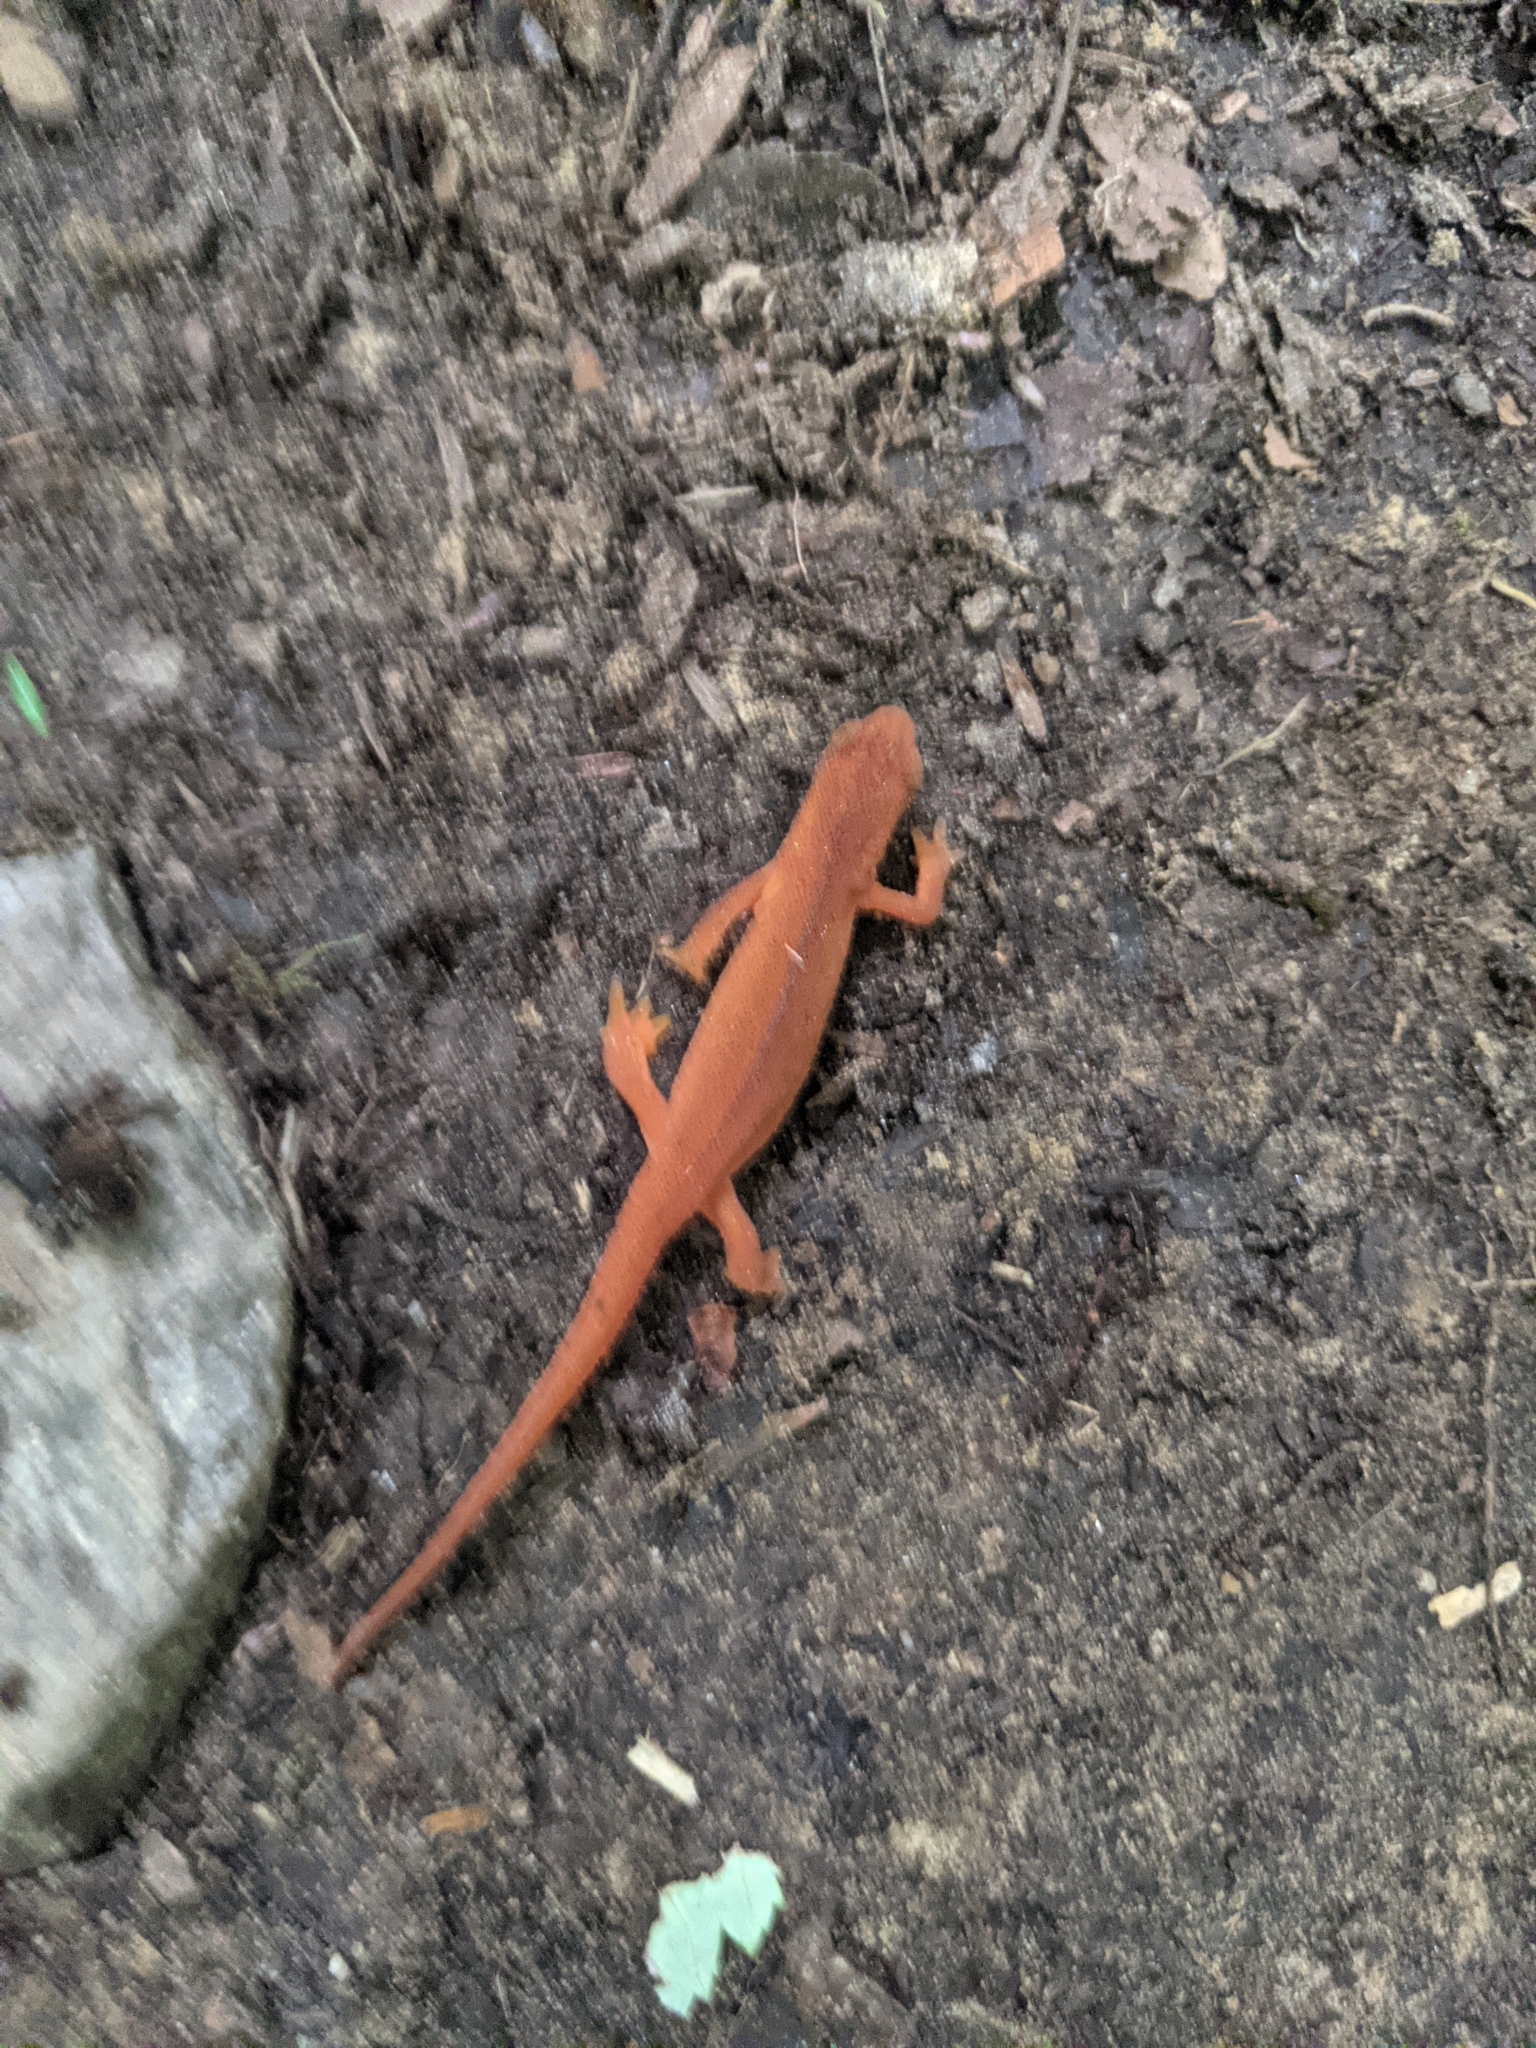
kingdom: Animalia
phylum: Chordata
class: Amphibia
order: Caudata
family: Salamandridae
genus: Notophthalmus
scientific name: Notophthalmus viridescens
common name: Eastern newt
